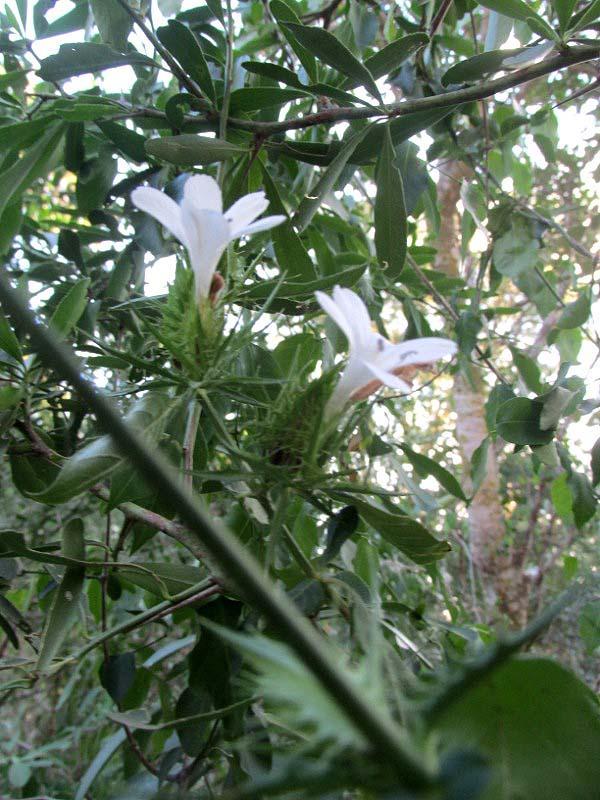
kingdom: Plantae
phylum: Tracheophyta
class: Magnoliopsida
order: Lamiales
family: Acanthaceae
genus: Barleria
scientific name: Barleria elegans
